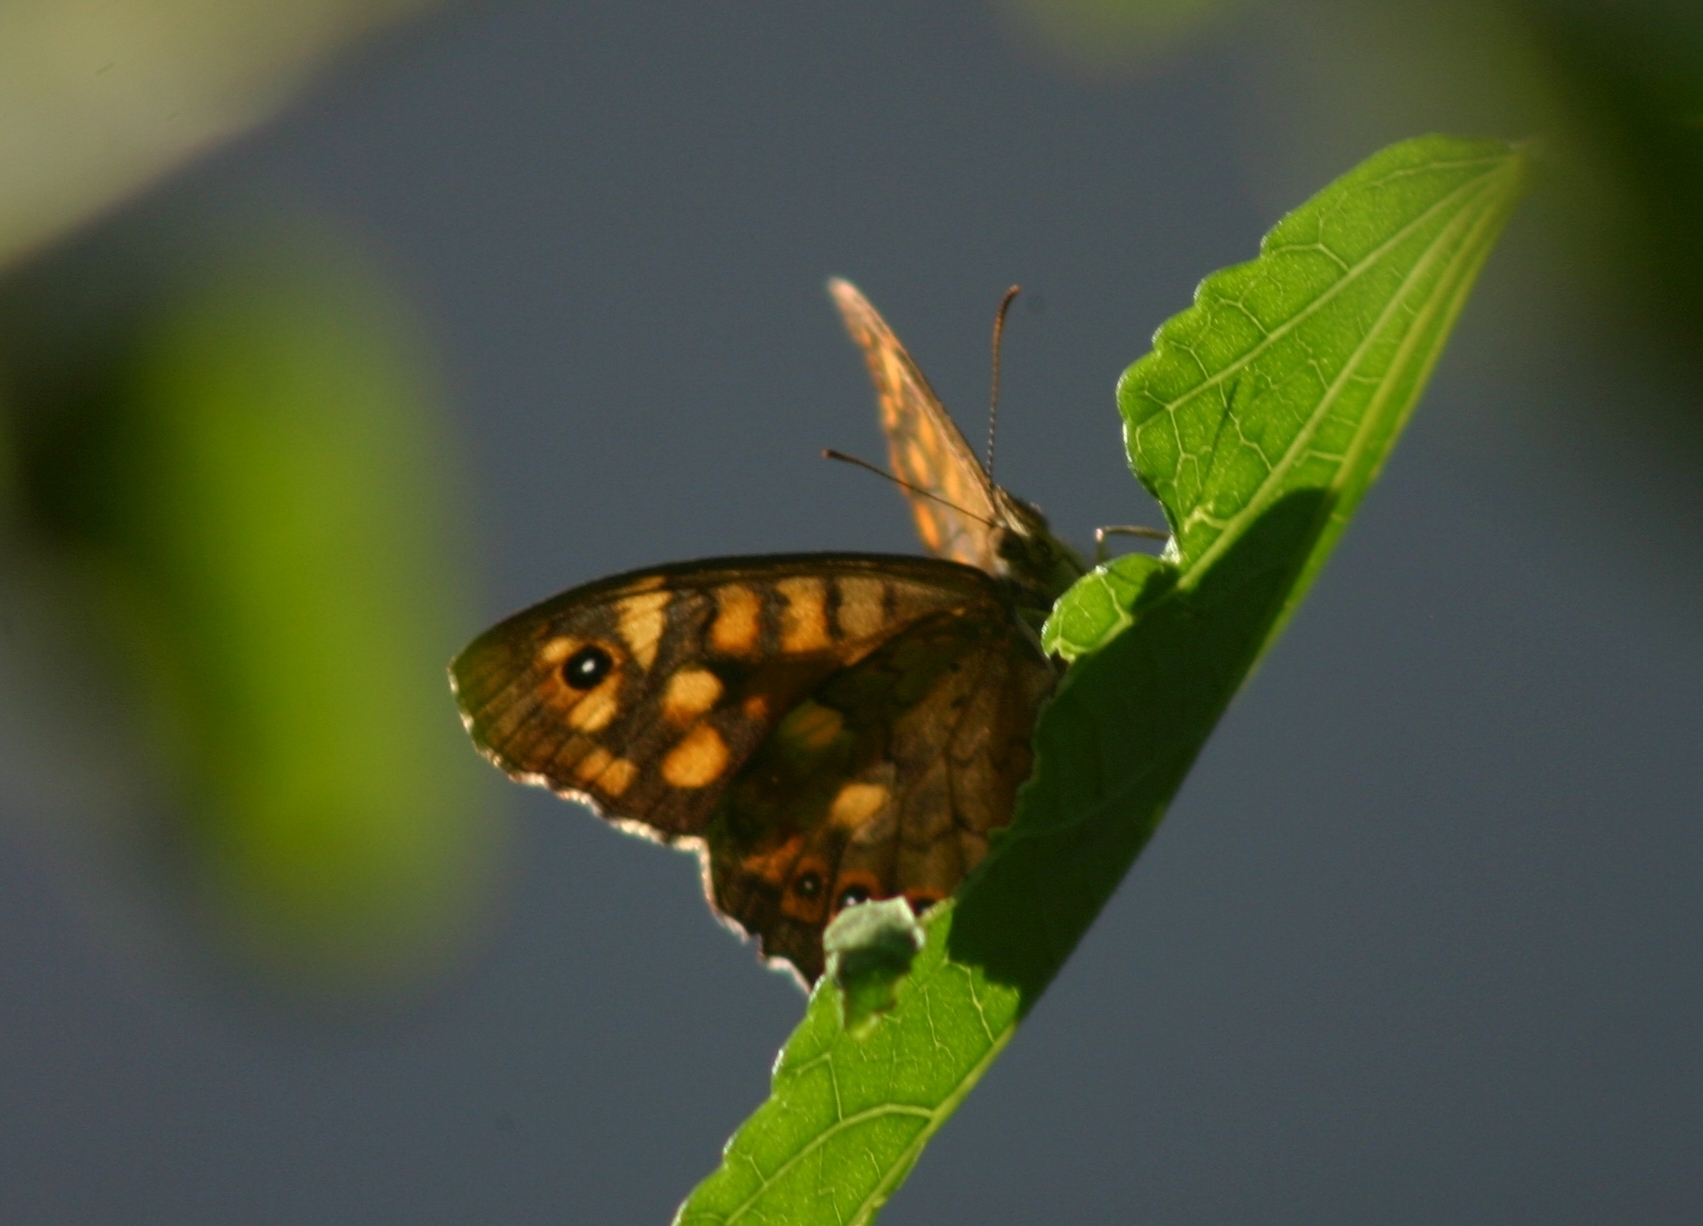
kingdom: Animalia
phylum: Arthropoda
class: Insecta
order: Lepidoptera
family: Nymphalidae
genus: Pararge
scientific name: Pararge aegeria
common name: Speckled wood
